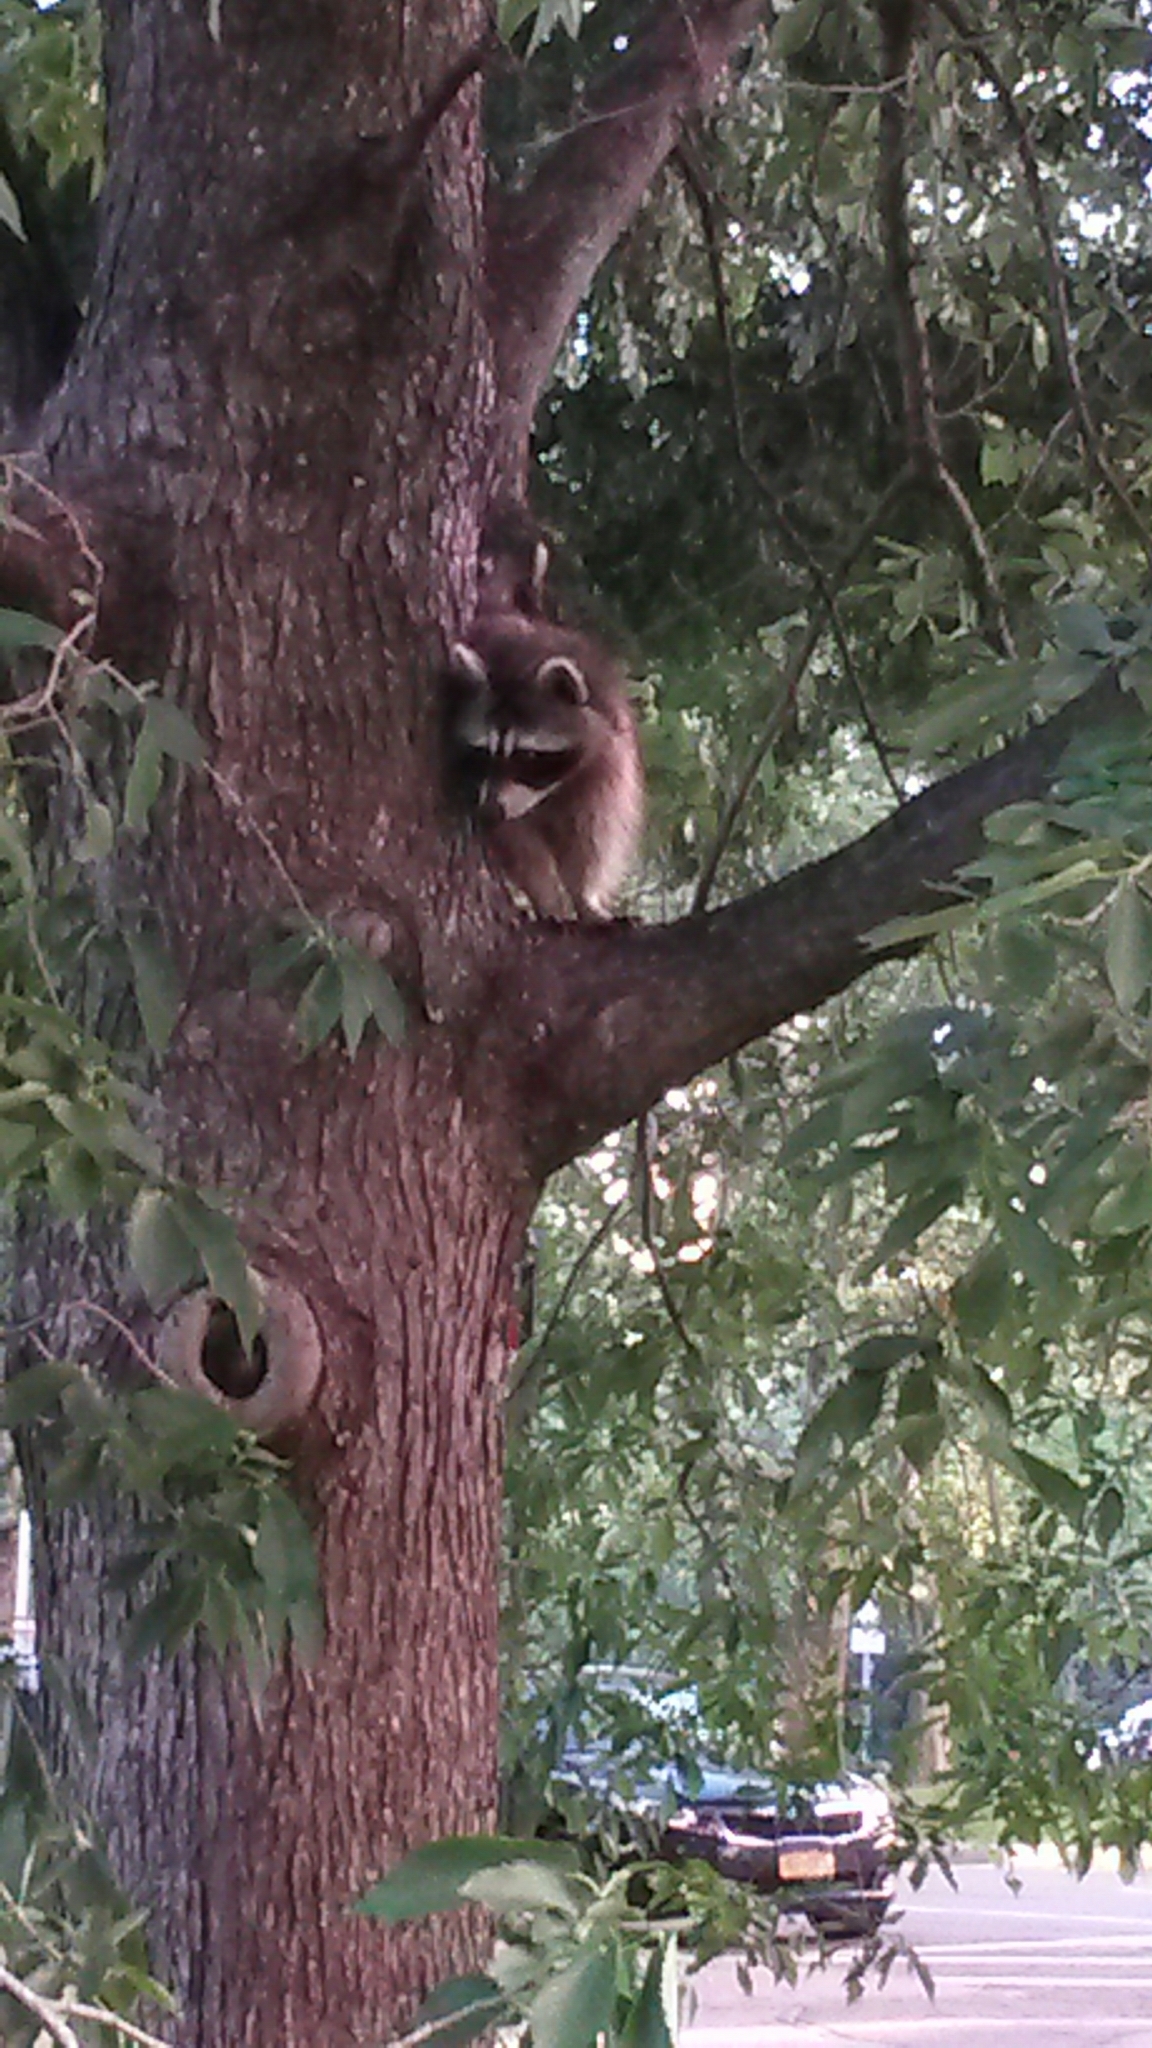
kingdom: Animalia
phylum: Chordata
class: Mammalia
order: Carnivora
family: Procyonidae
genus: Procyon
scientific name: Procyon lotor
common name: Raccoon
